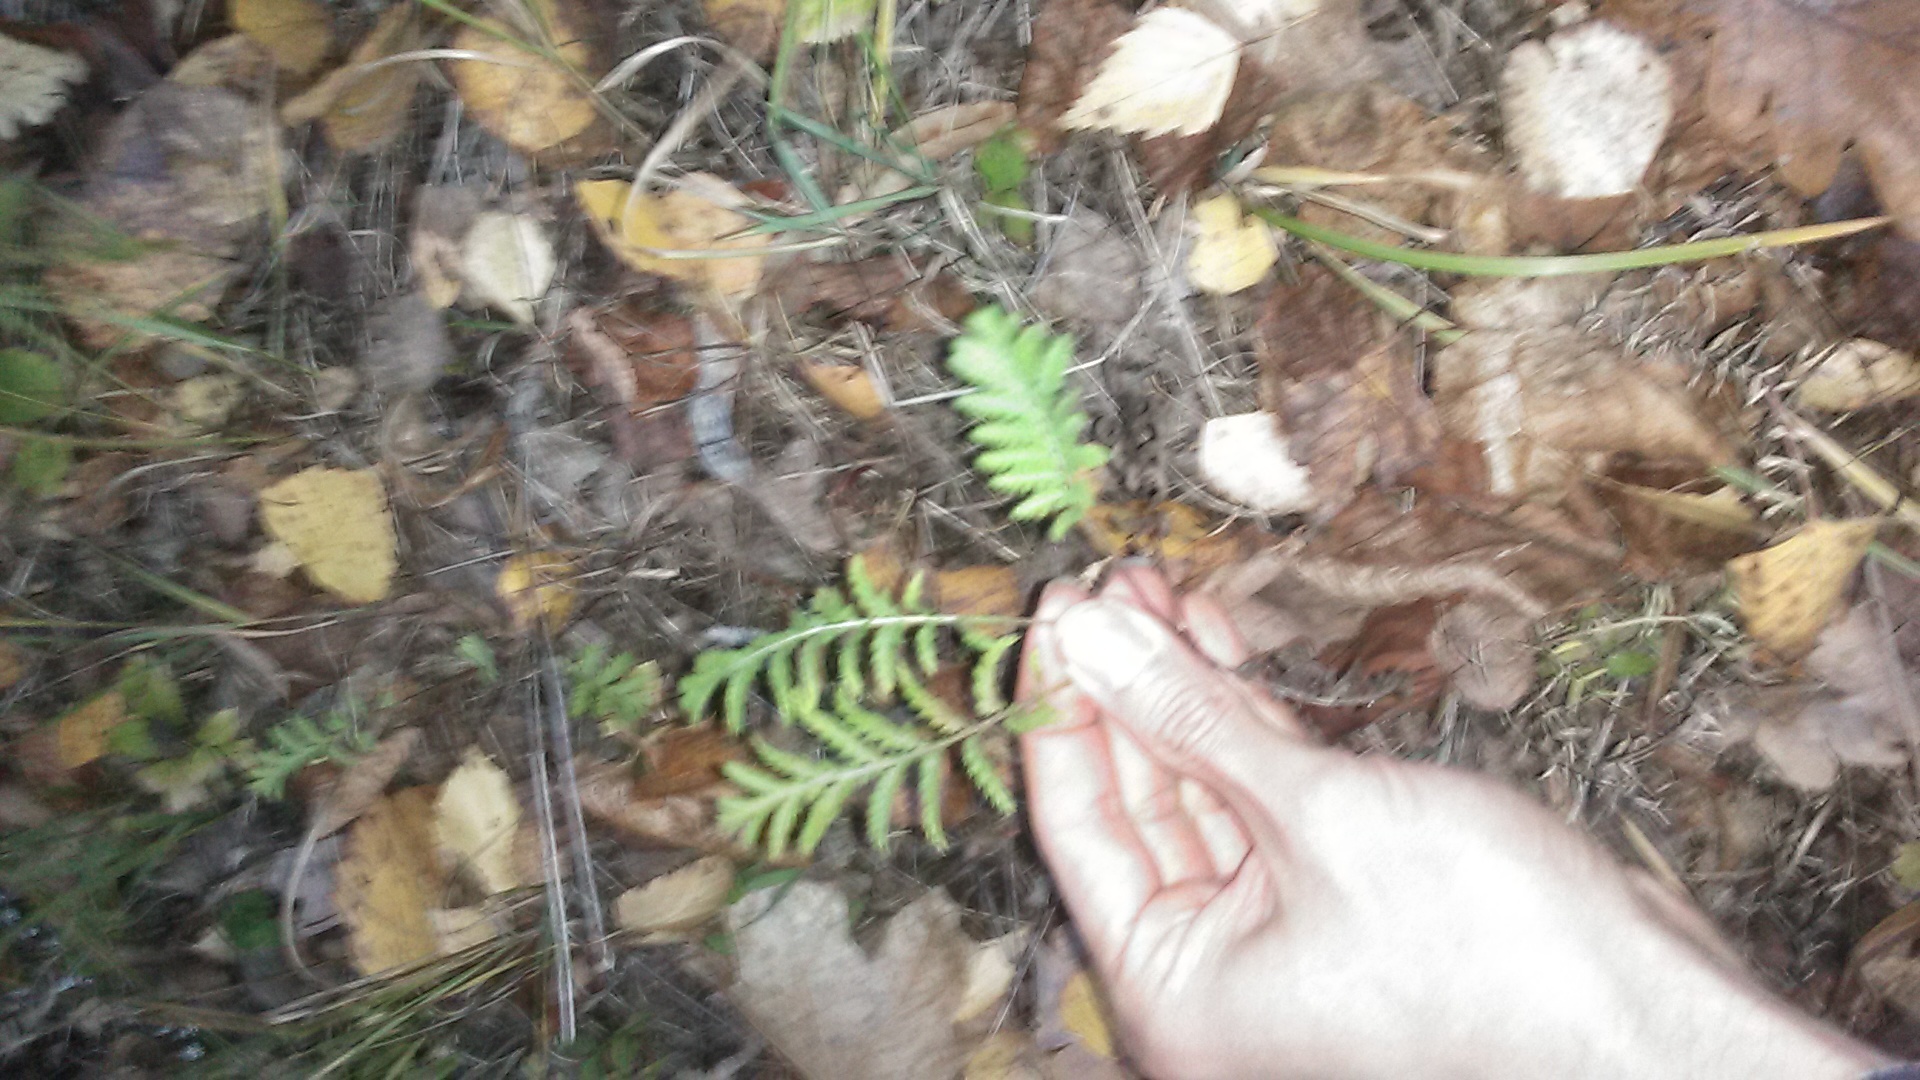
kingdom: Plantae
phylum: Tracheophyta
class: Magnoliopsida
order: Asterales
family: Asteraceae
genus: Tanacetum
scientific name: Tanacetum vulgare
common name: Common tansy
